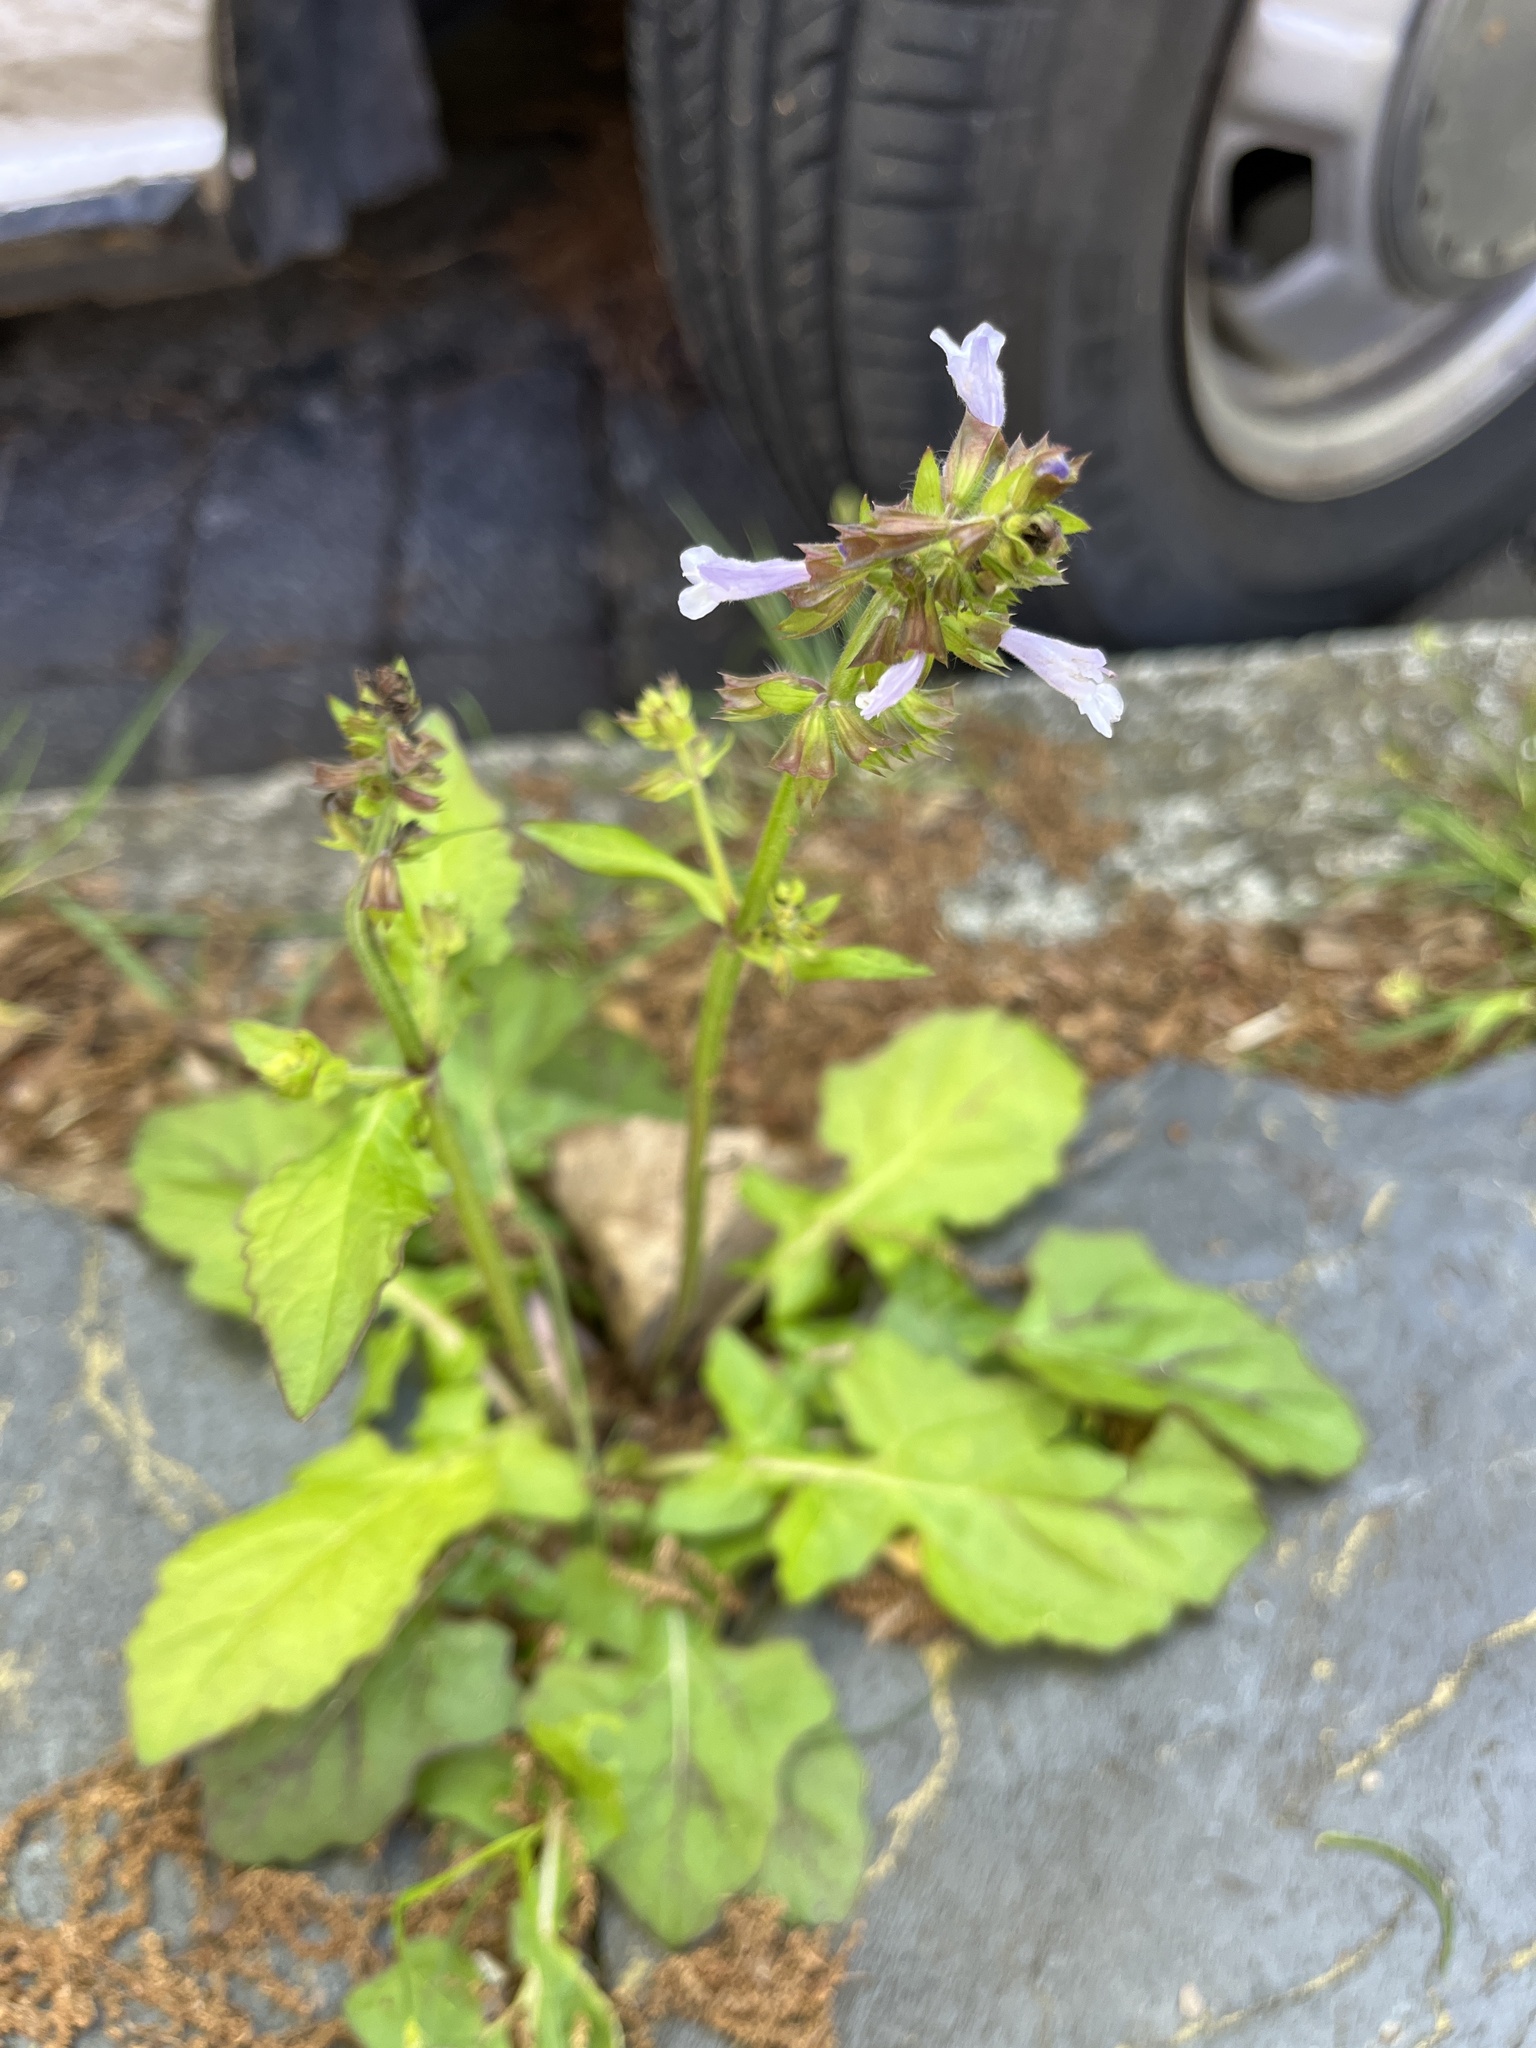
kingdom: Plantae
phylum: Tracheophyta
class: Magnoliopsida
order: Lamiales
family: Lamiaceae
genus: Salvia
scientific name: Salvia lyrata
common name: Cancerweed
